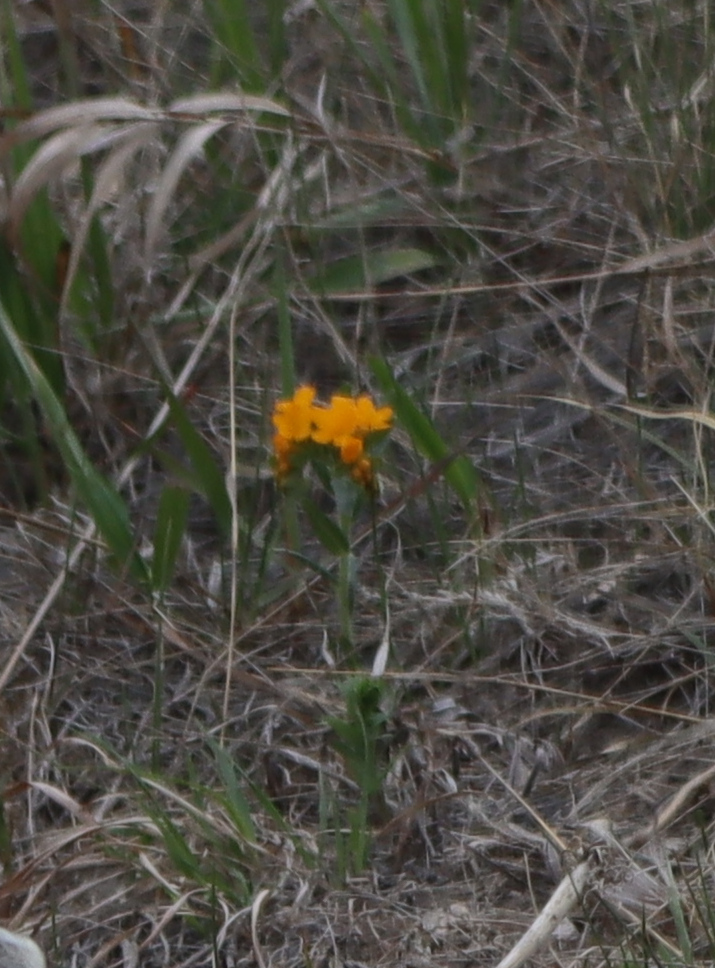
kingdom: Plantae
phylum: Tracheophyta
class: Magnoliopsida
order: Boraginales
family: Boraginaceae
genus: Lithospermum
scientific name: Lithospermum canescens
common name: Hoary puccoon
